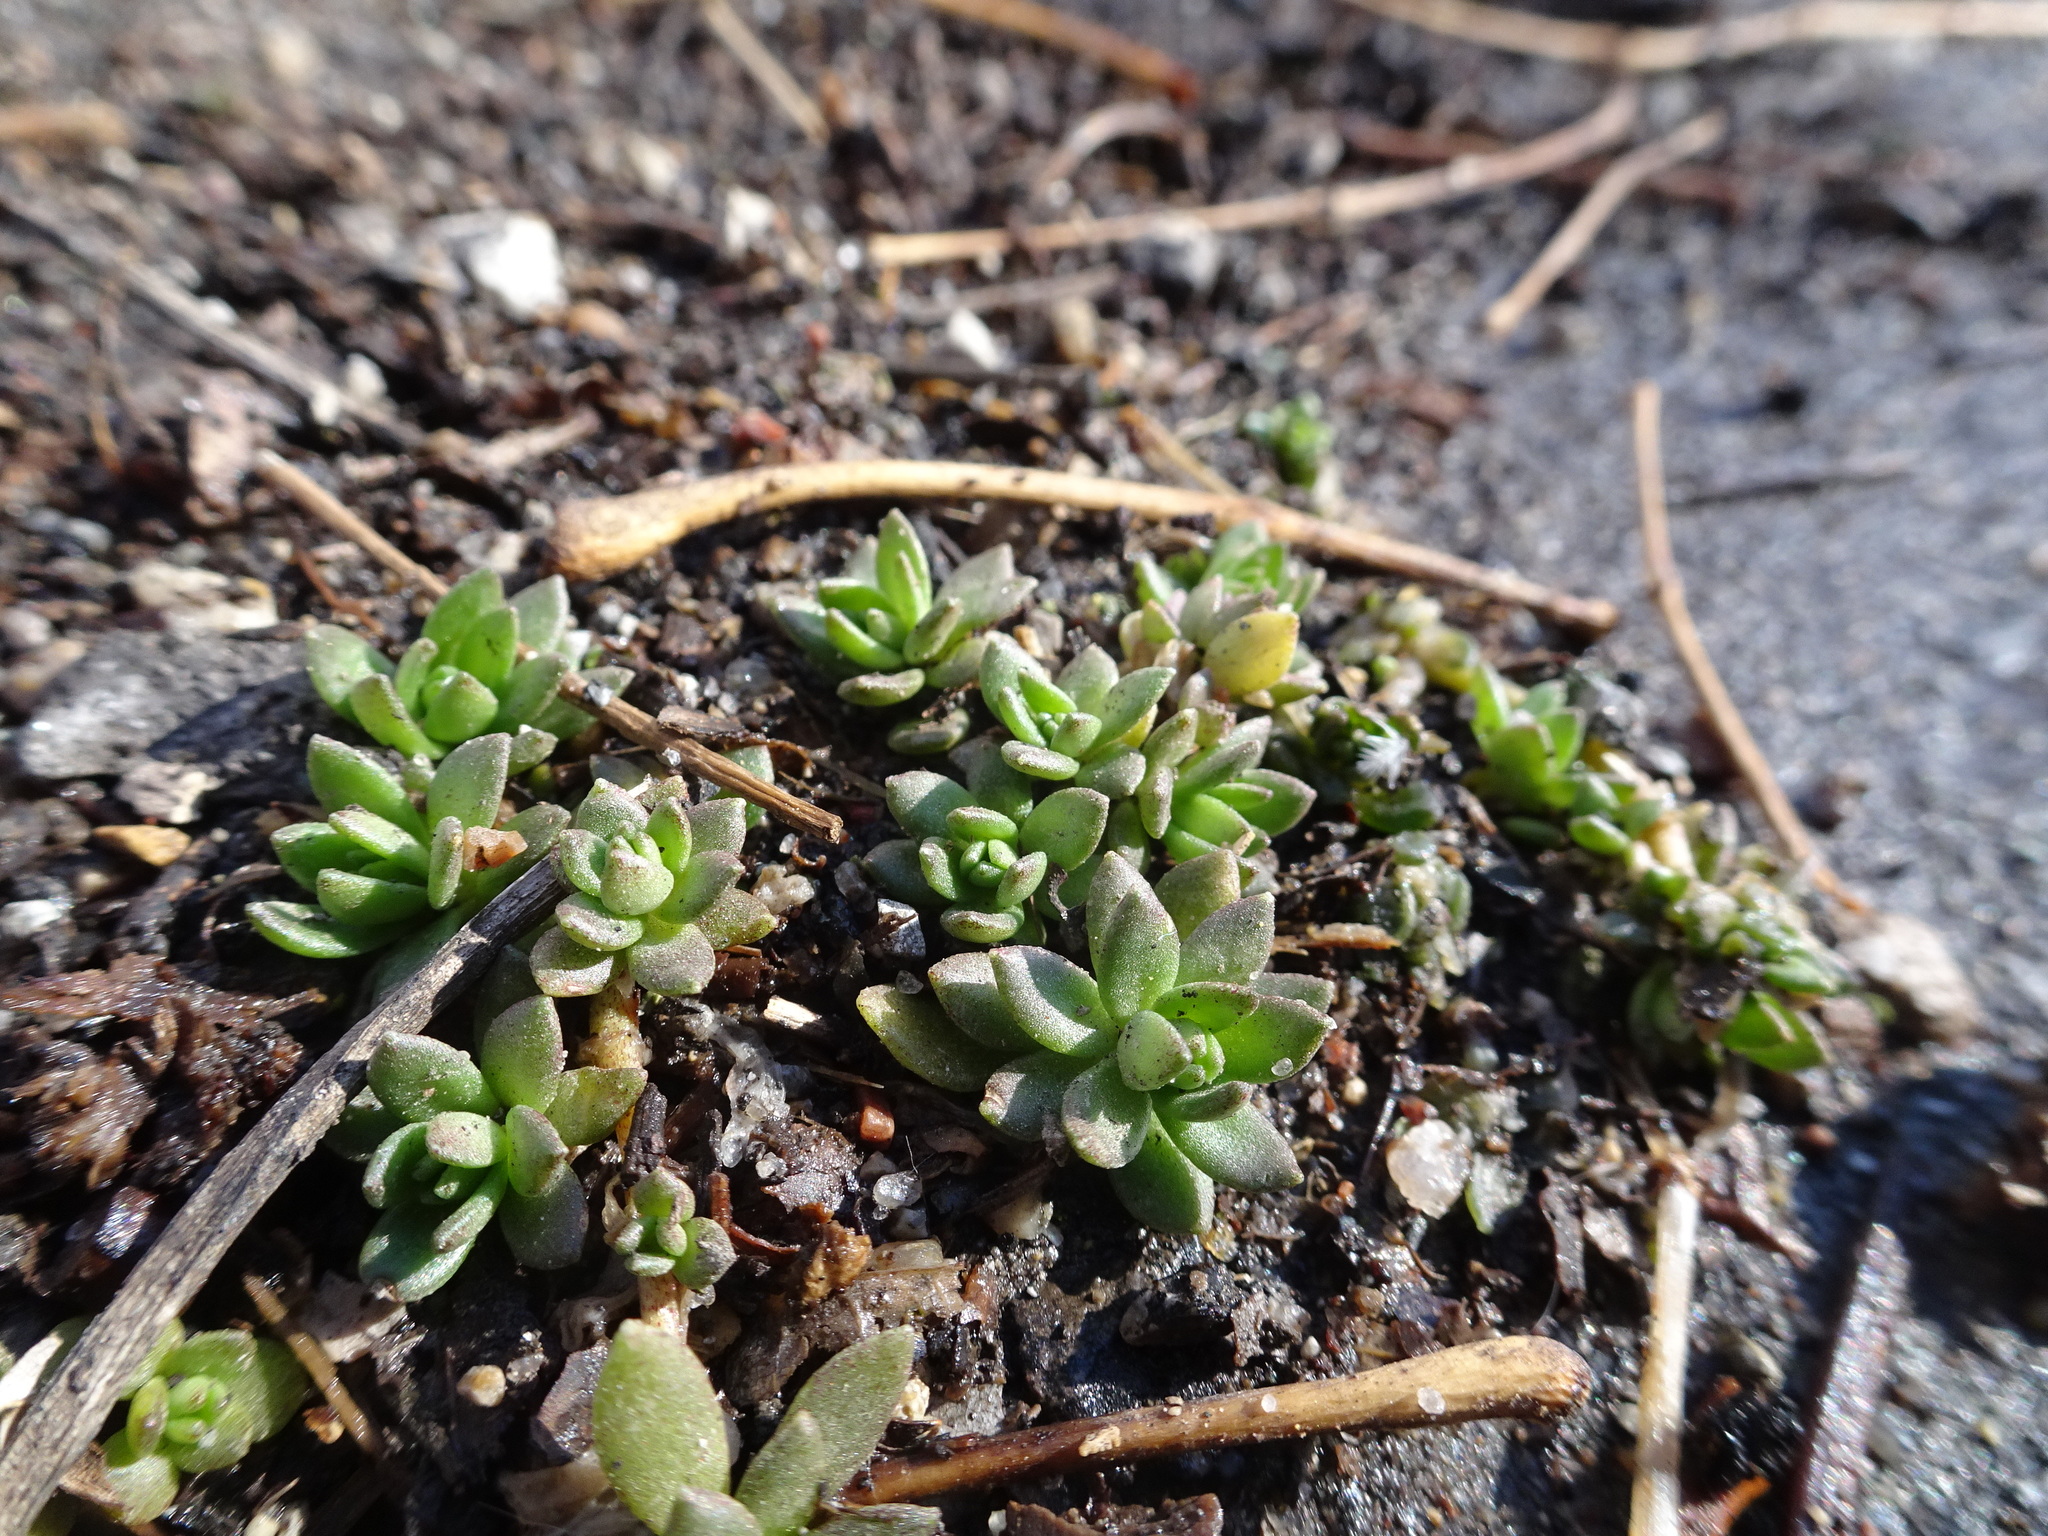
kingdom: Plantae
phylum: Tracheophyta
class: Magnoliopsida
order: Saxifragales
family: Crassulaceae
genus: Sedum
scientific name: Sedum sarmentosum
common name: Stringy stonecrop
